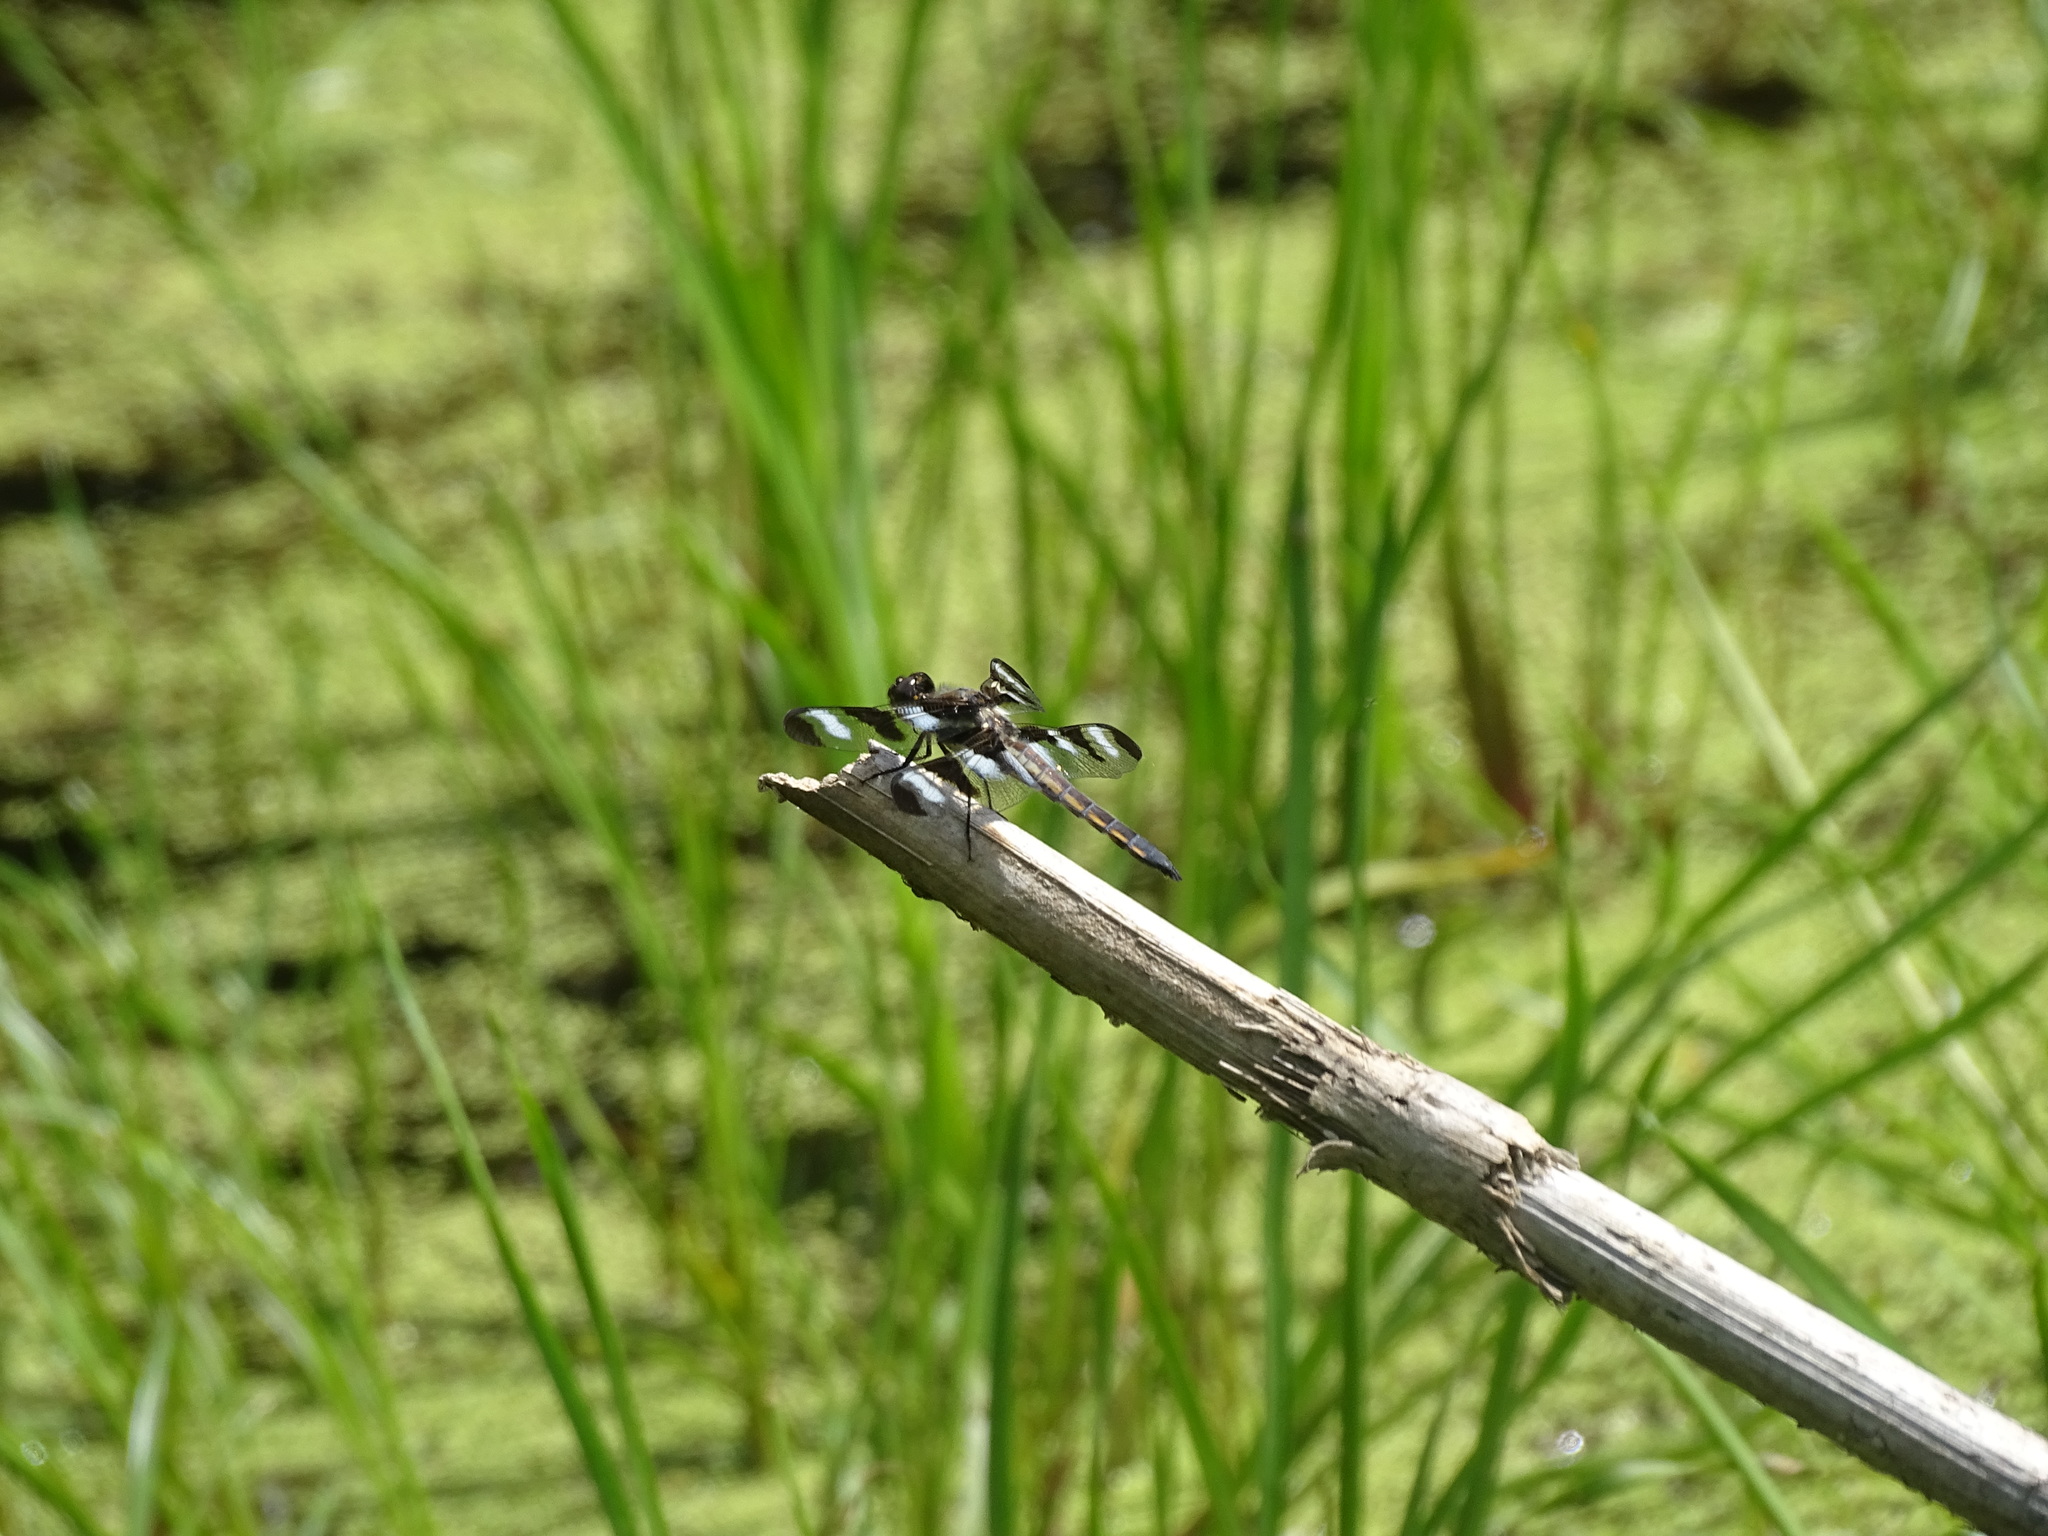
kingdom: Animalia
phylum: Arthropoda
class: Insecta
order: Odonata
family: Libellulidae
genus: Libellula
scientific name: Libellula pulchella
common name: Twelve-spotted skimmer
